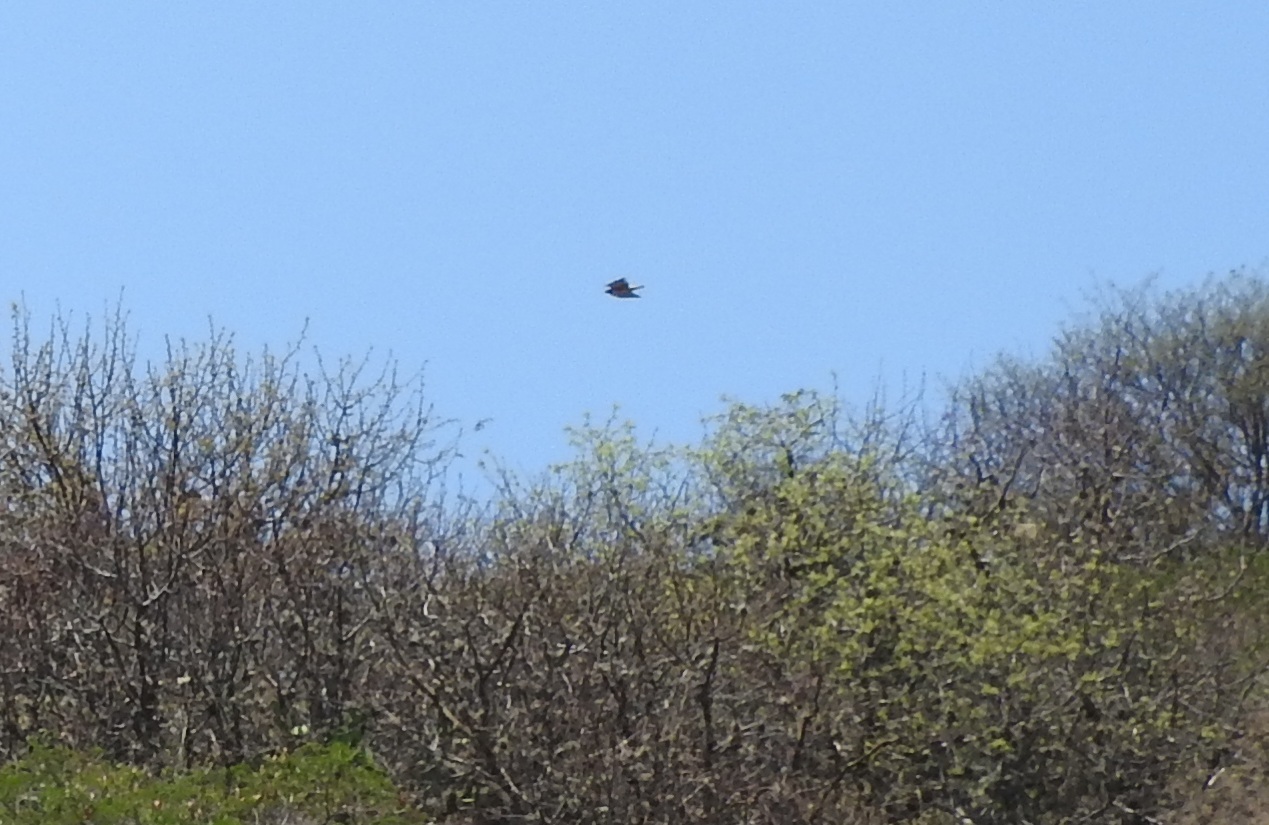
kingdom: Animalia
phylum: Chordata
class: Aves
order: Accipitriformes
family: Accipitridae
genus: Buteo
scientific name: Buteo jamaicensis
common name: Red-tailed hawk
